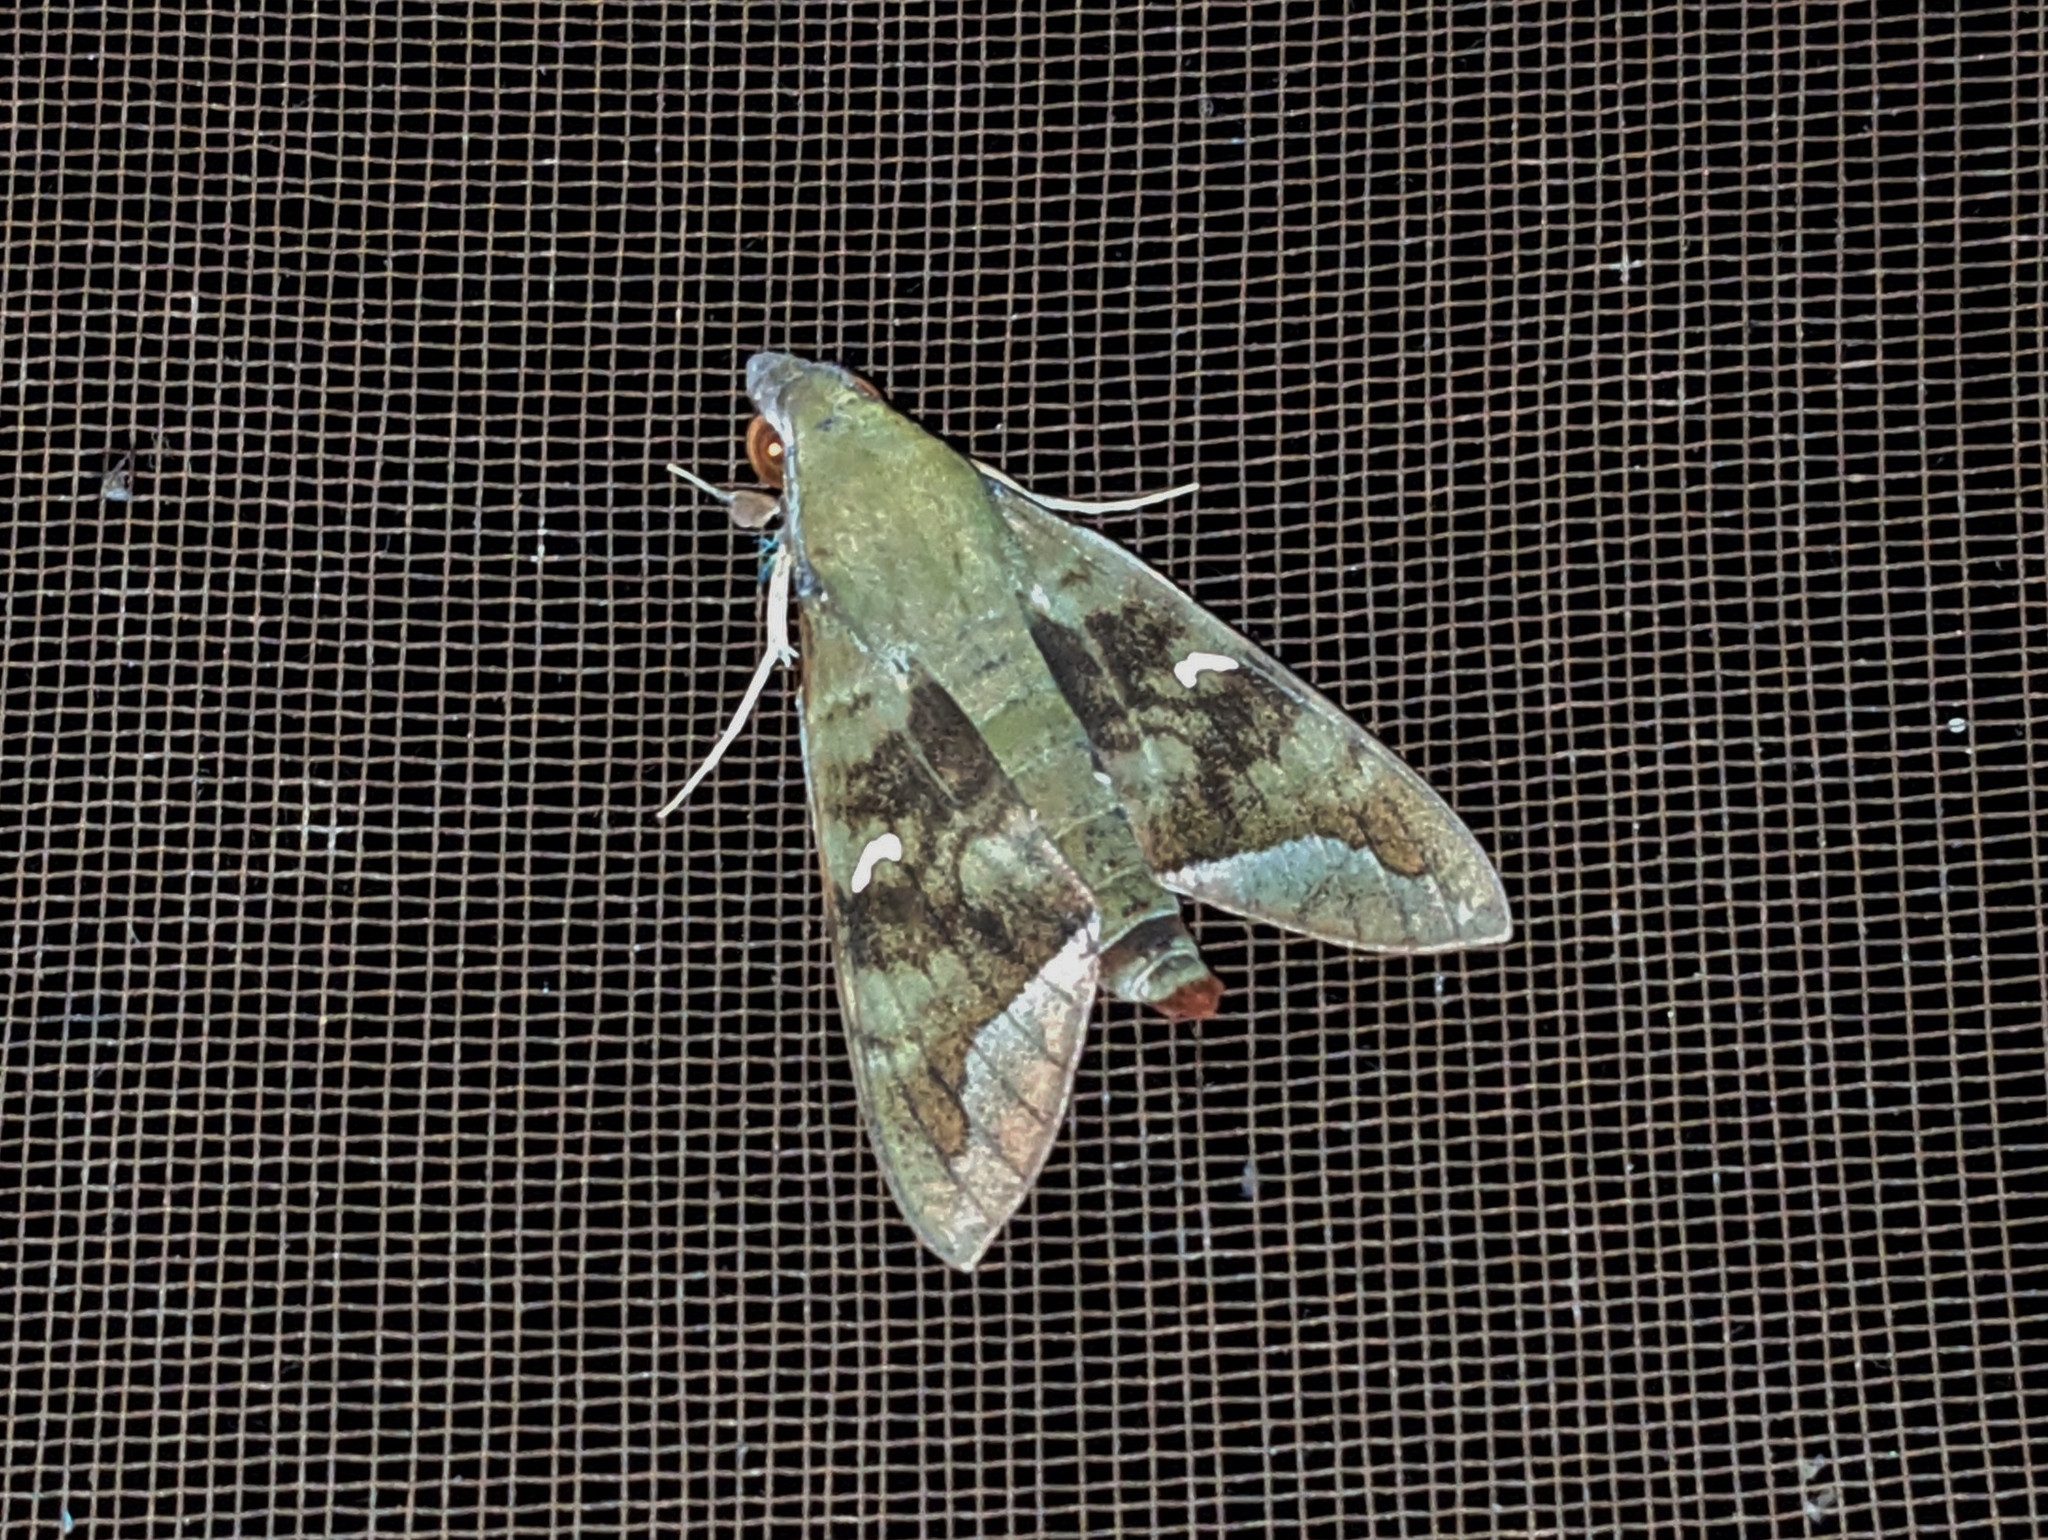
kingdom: Animalia
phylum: Arthropoda
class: Insecta
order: Lepidoptera
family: Sphingidae
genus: Nephele
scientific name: Nephele comma
